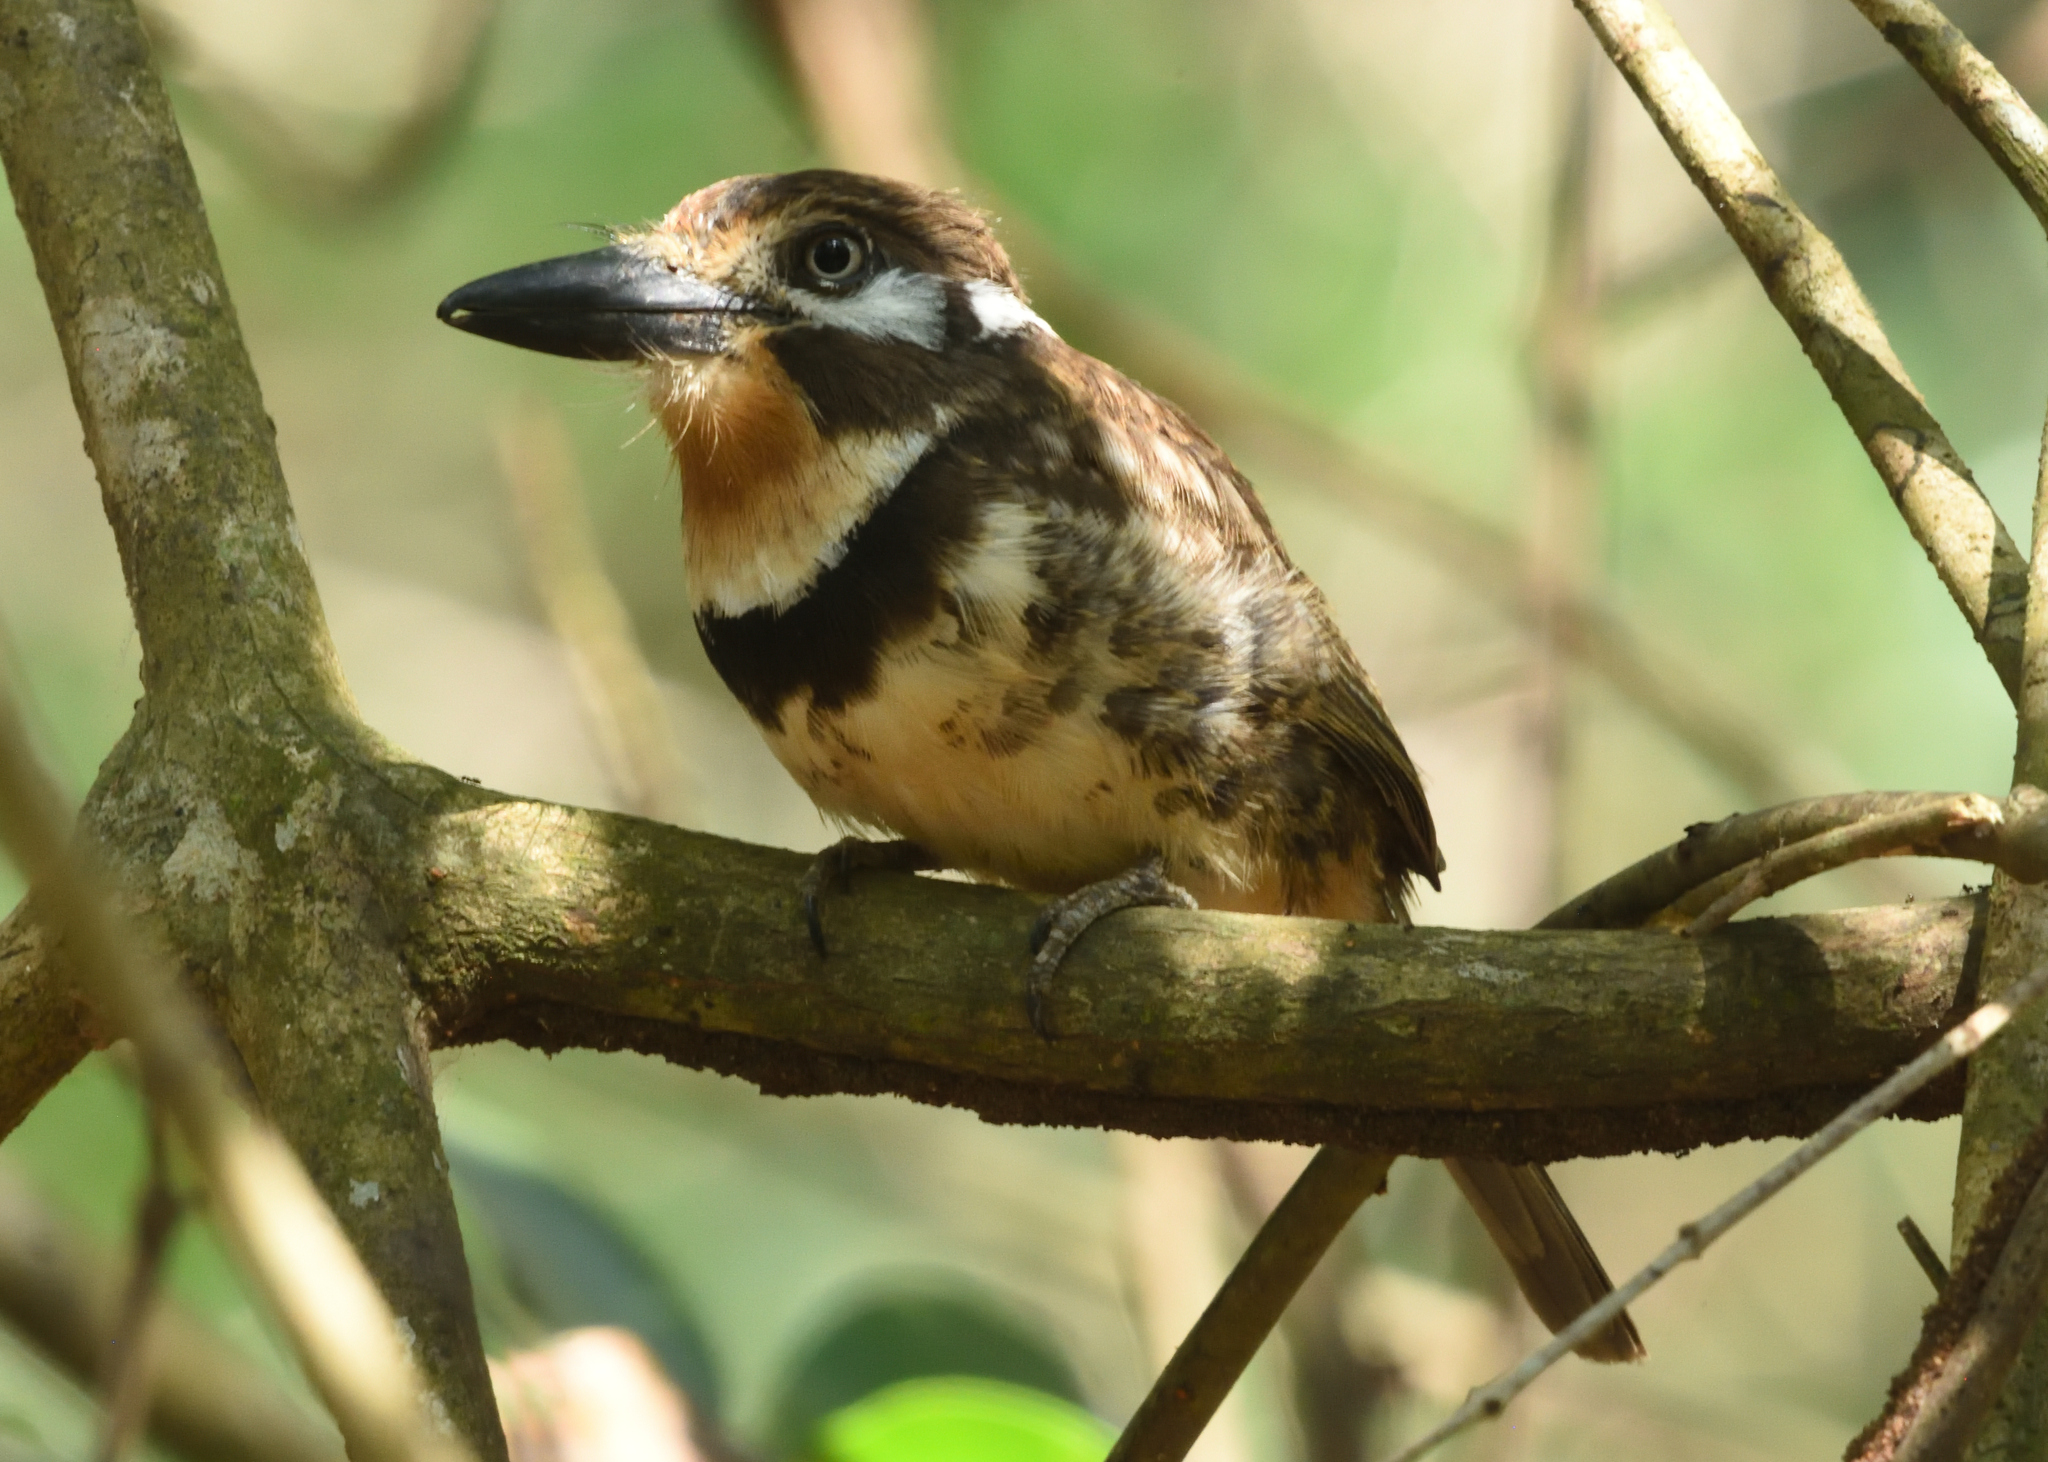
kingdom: Animalia
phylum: Chordata
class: Aves
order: Piciformes
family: Bucconidae
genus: Hypnelus
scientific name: Hypnelus ruficollis
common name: Russet-throated puffbird
